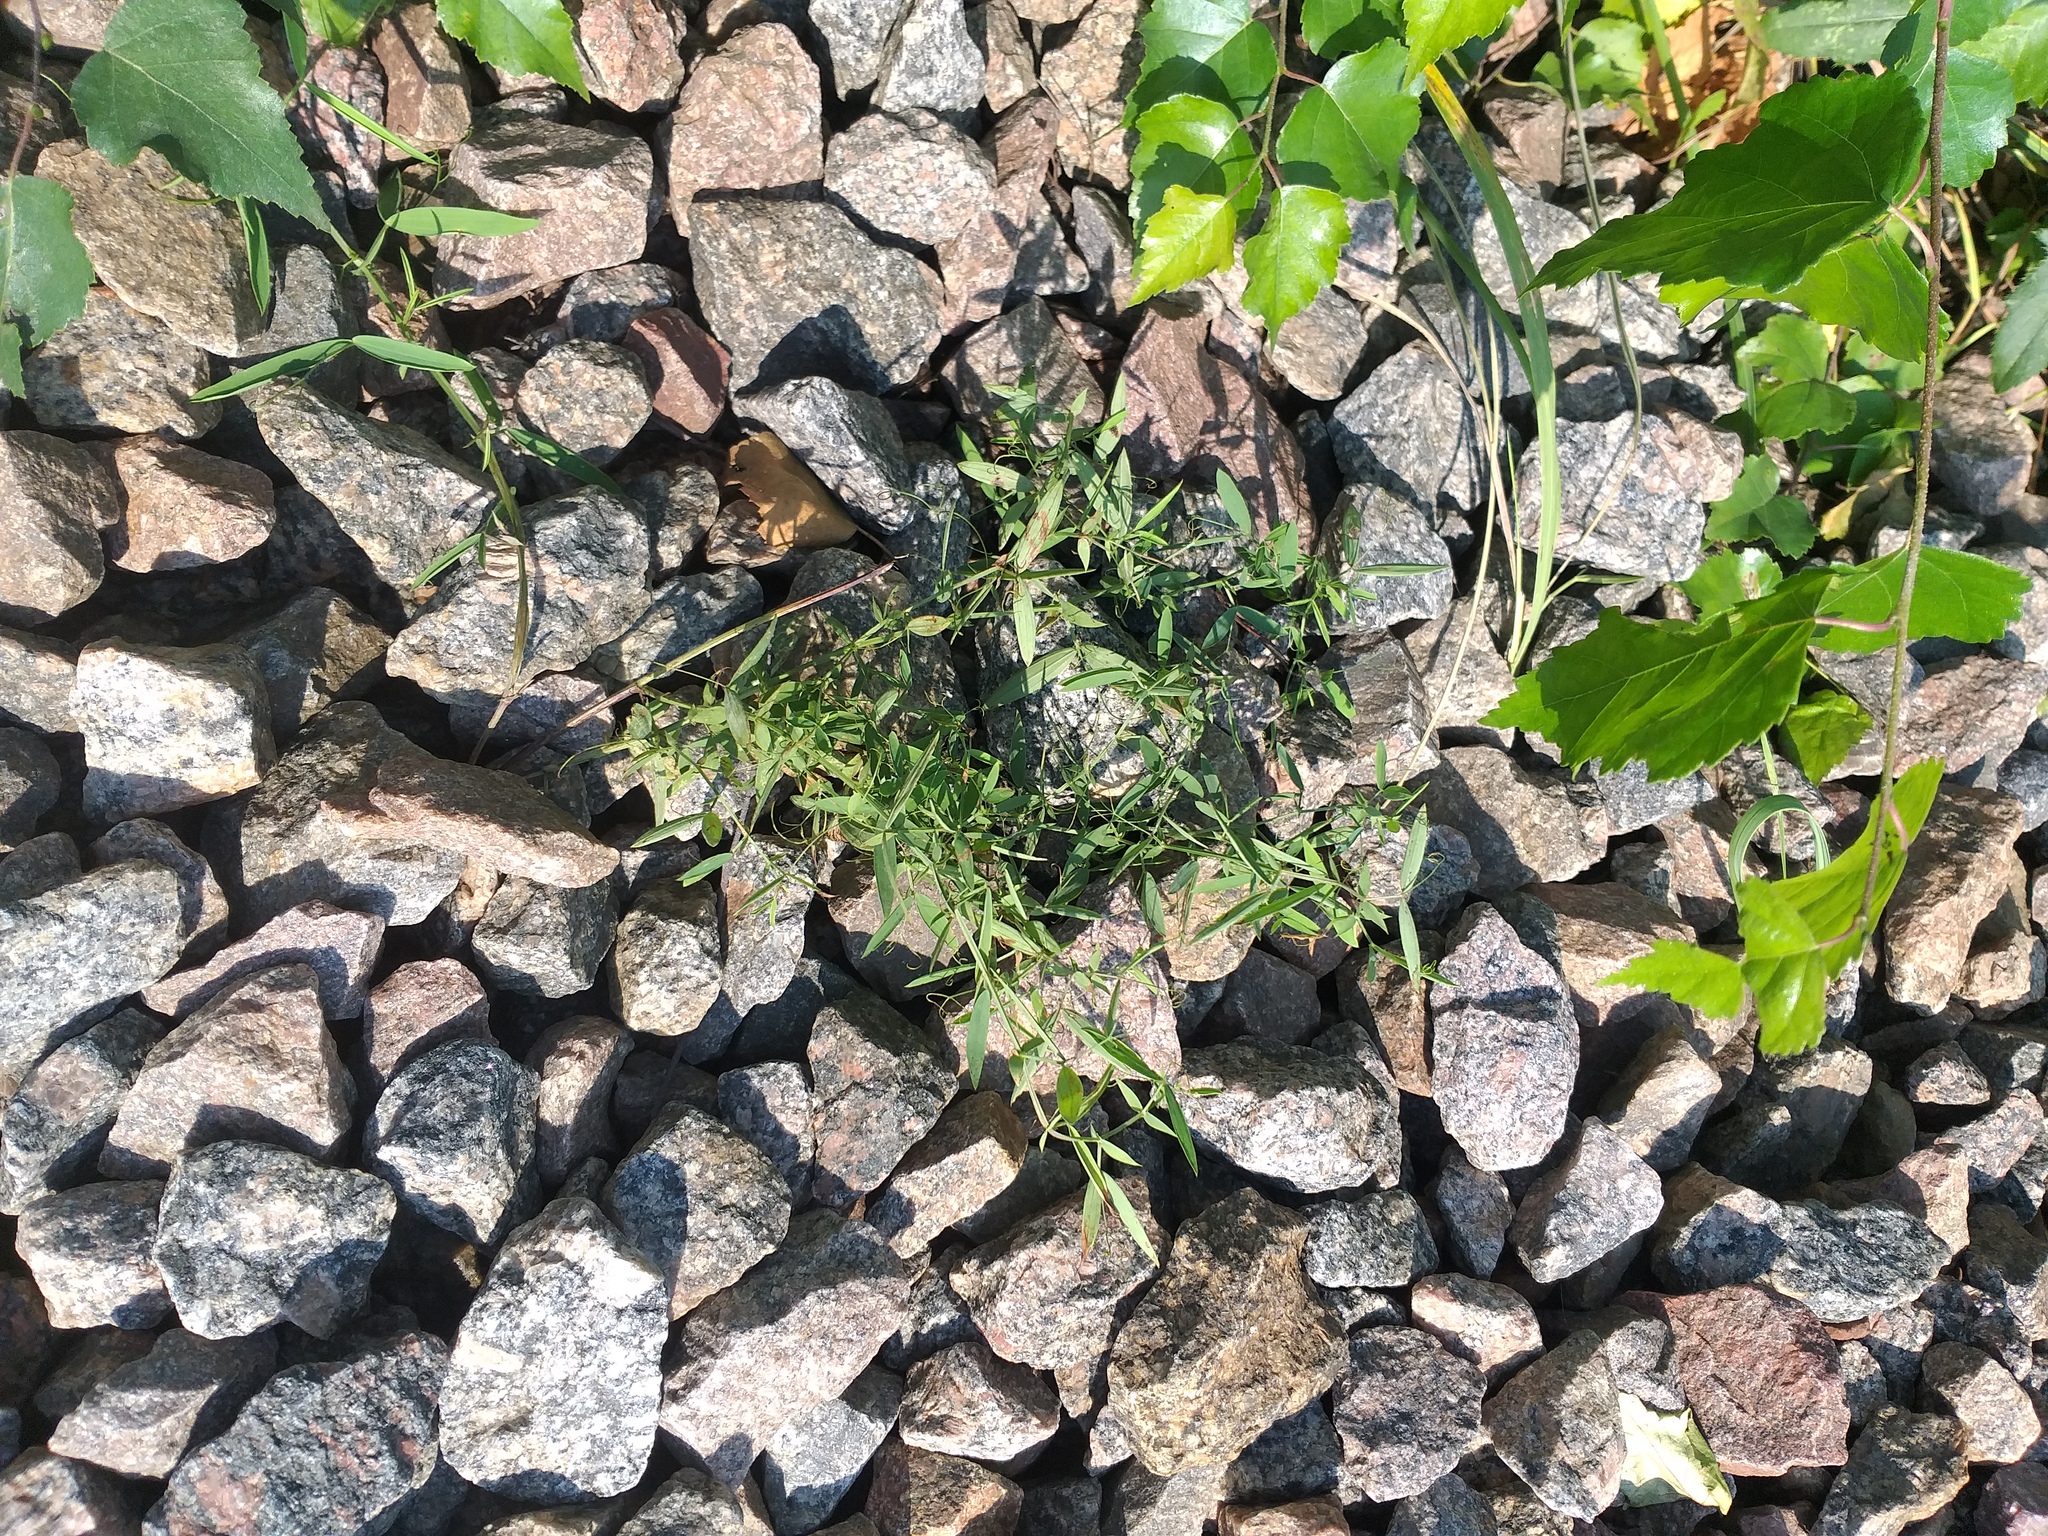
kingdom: Plantae
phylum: Tracheophyta
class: Magnoliopsida
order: Fabales
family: Fabaceae
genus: Lathyrus
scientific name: Lathyrus pratensis
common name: Meadow vetchling
